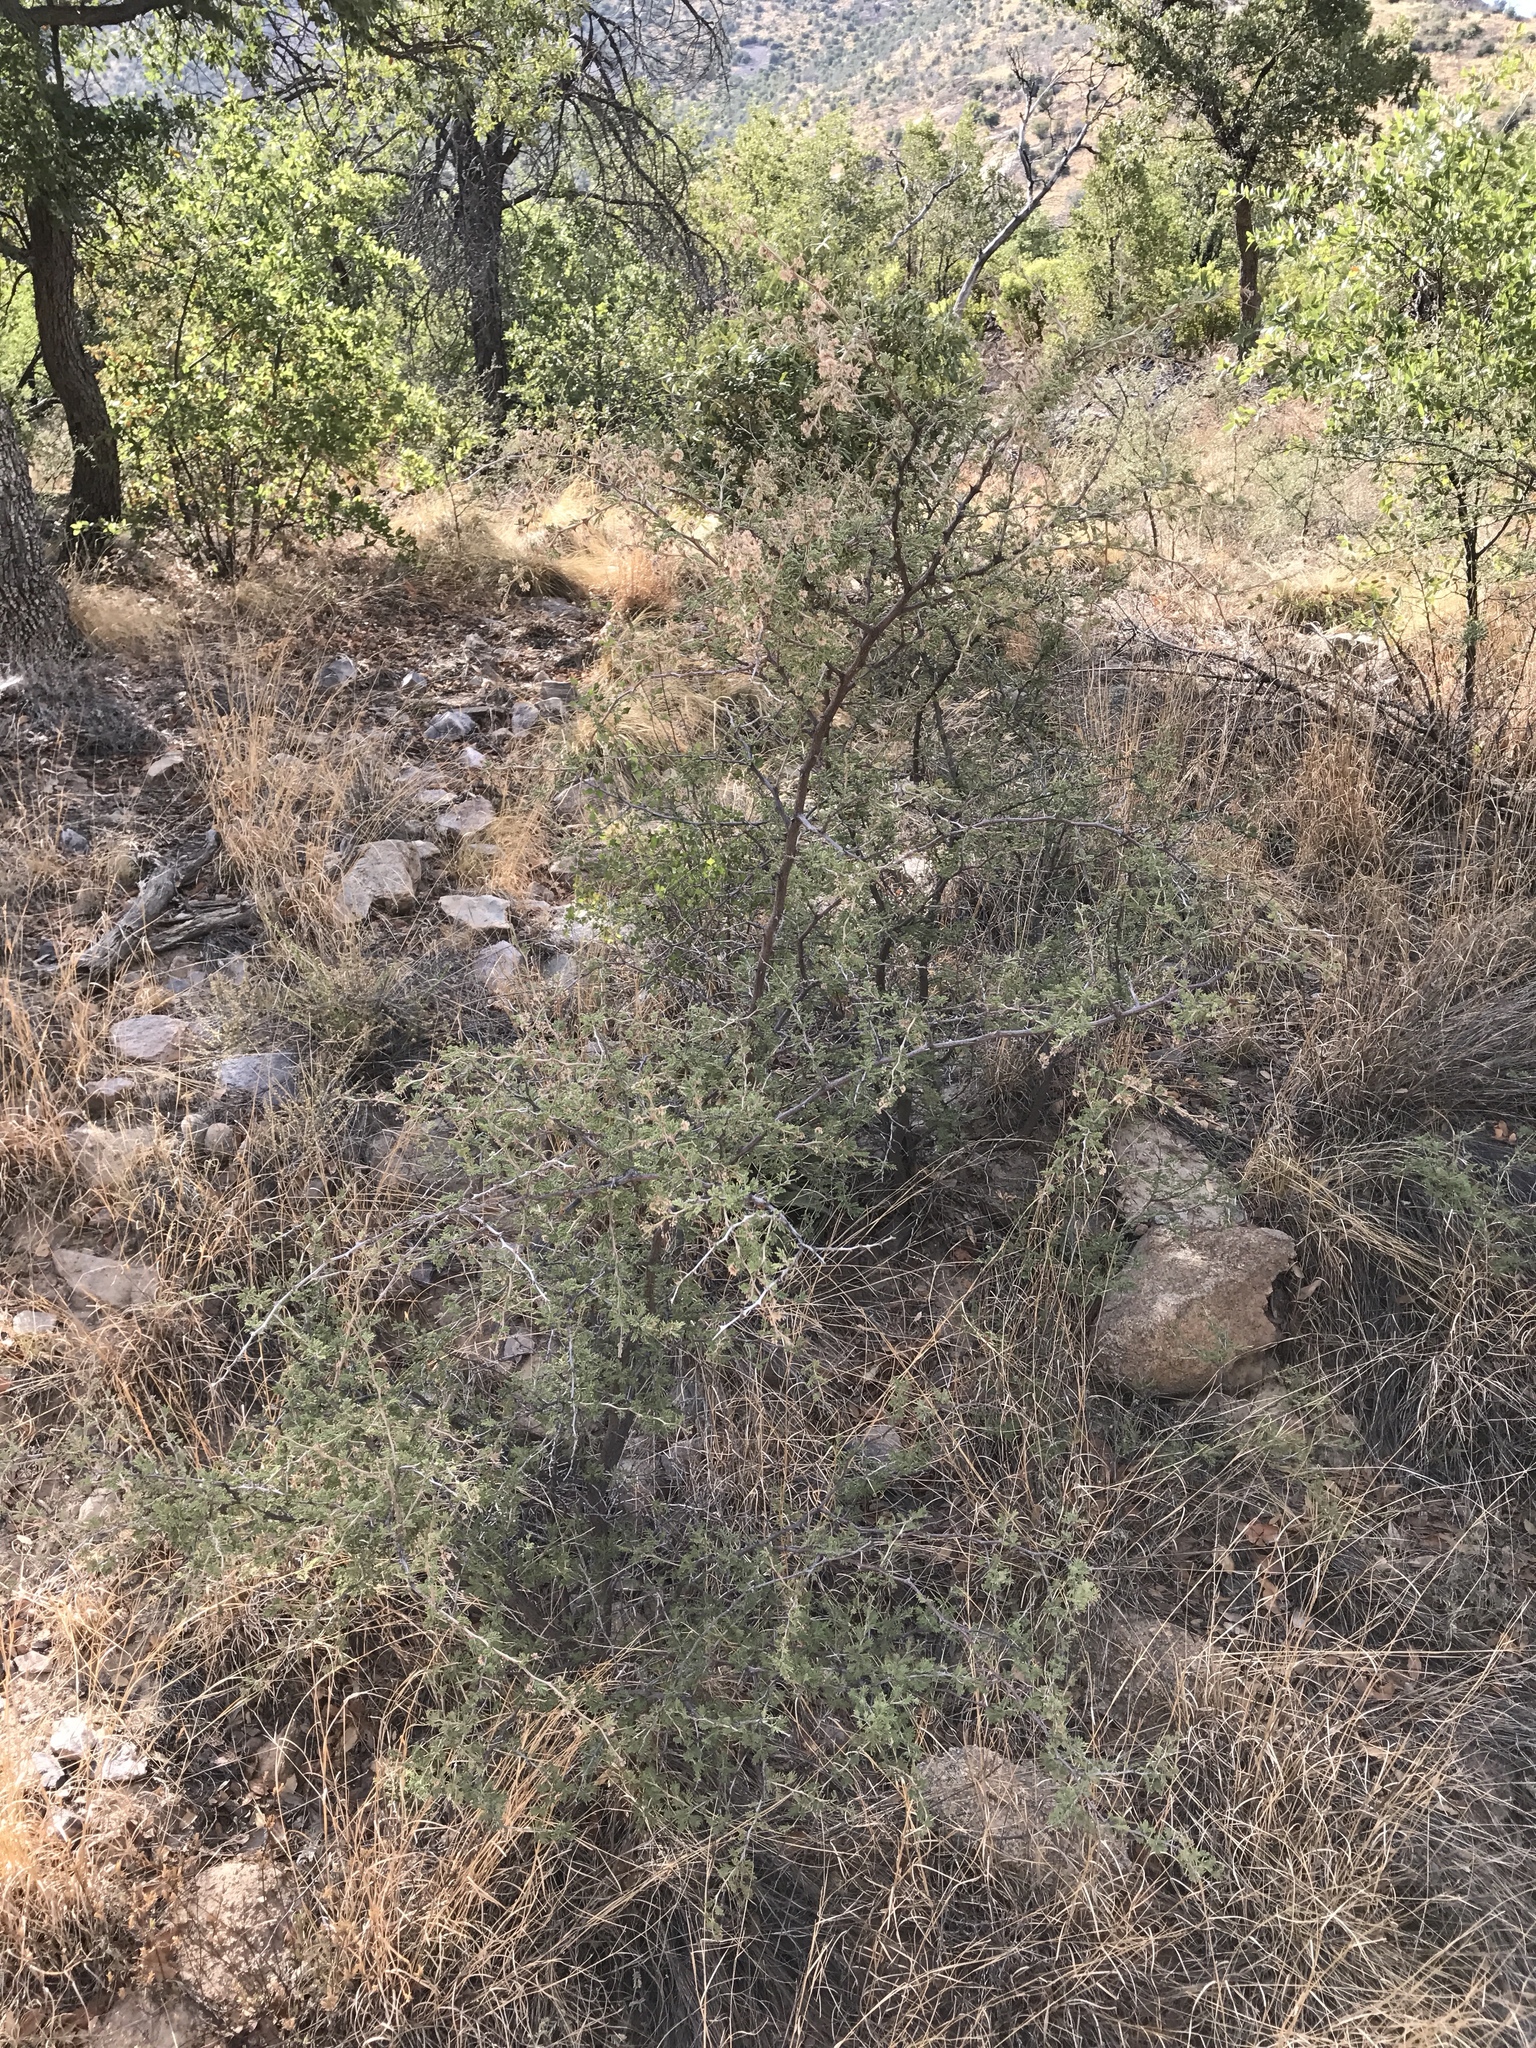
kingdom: Plantae
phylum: Tracheophyta
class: Magnoliopsida
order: Fabales
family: Fabaceae
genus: Mimosa
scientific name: Mimosa biuncifera
